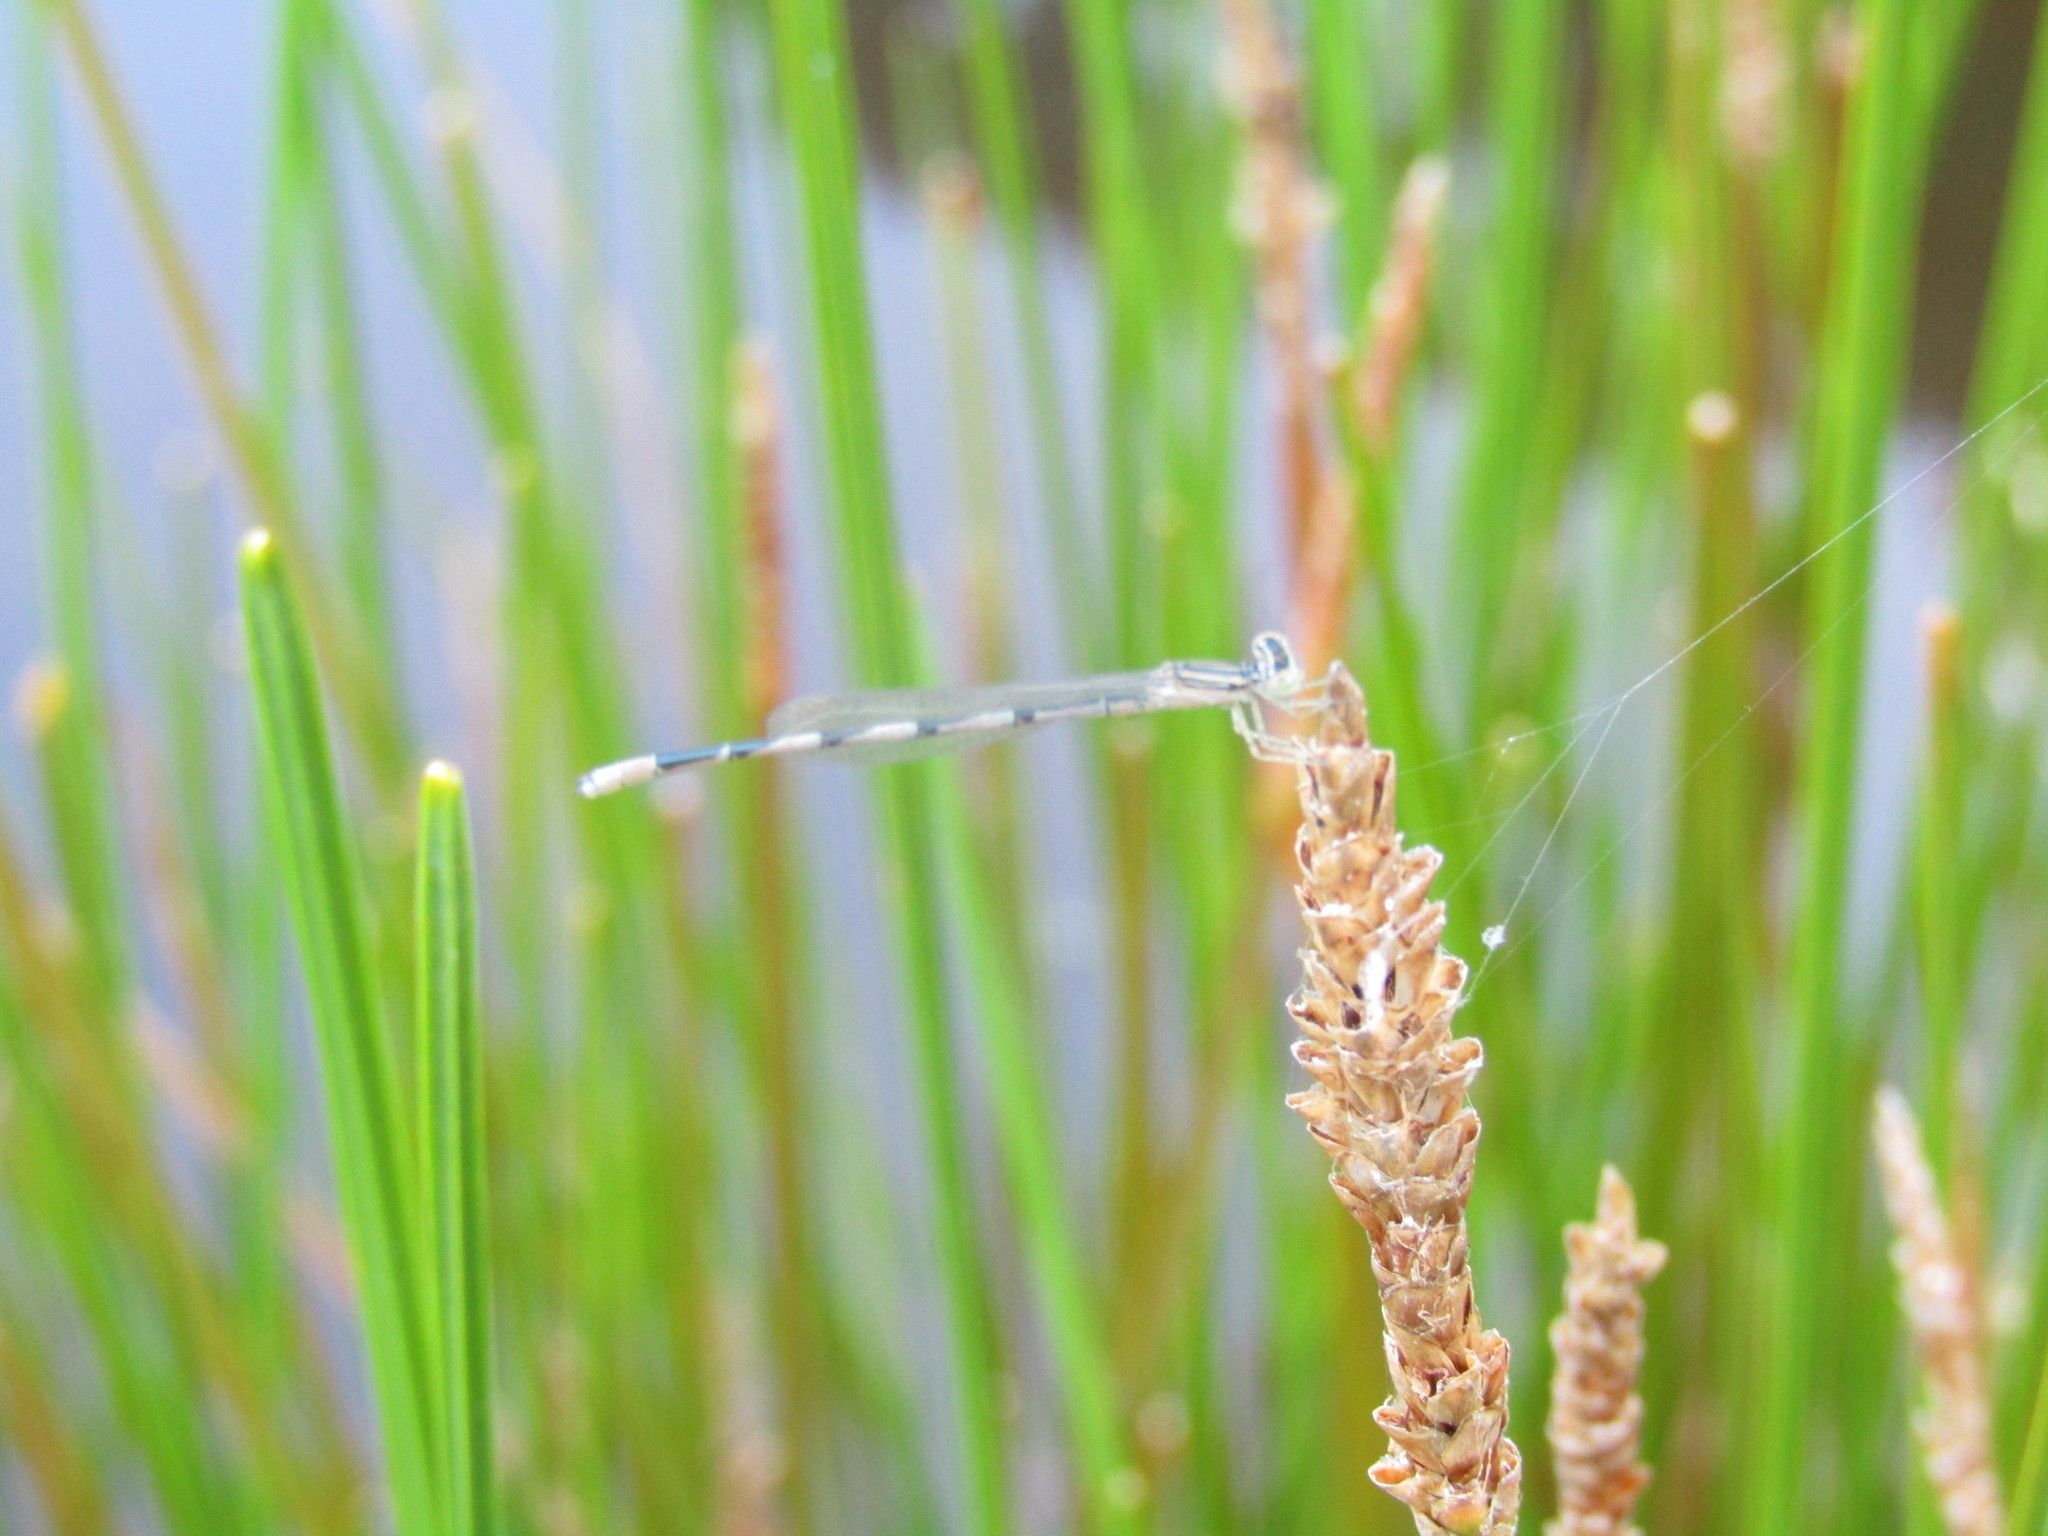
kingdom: Animalia
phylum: Arthropoda
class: Insecta
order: Odonata
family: Coenagrionidae
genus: Enallagma
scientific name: Enallagma basidens
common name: Double-striped bluet
